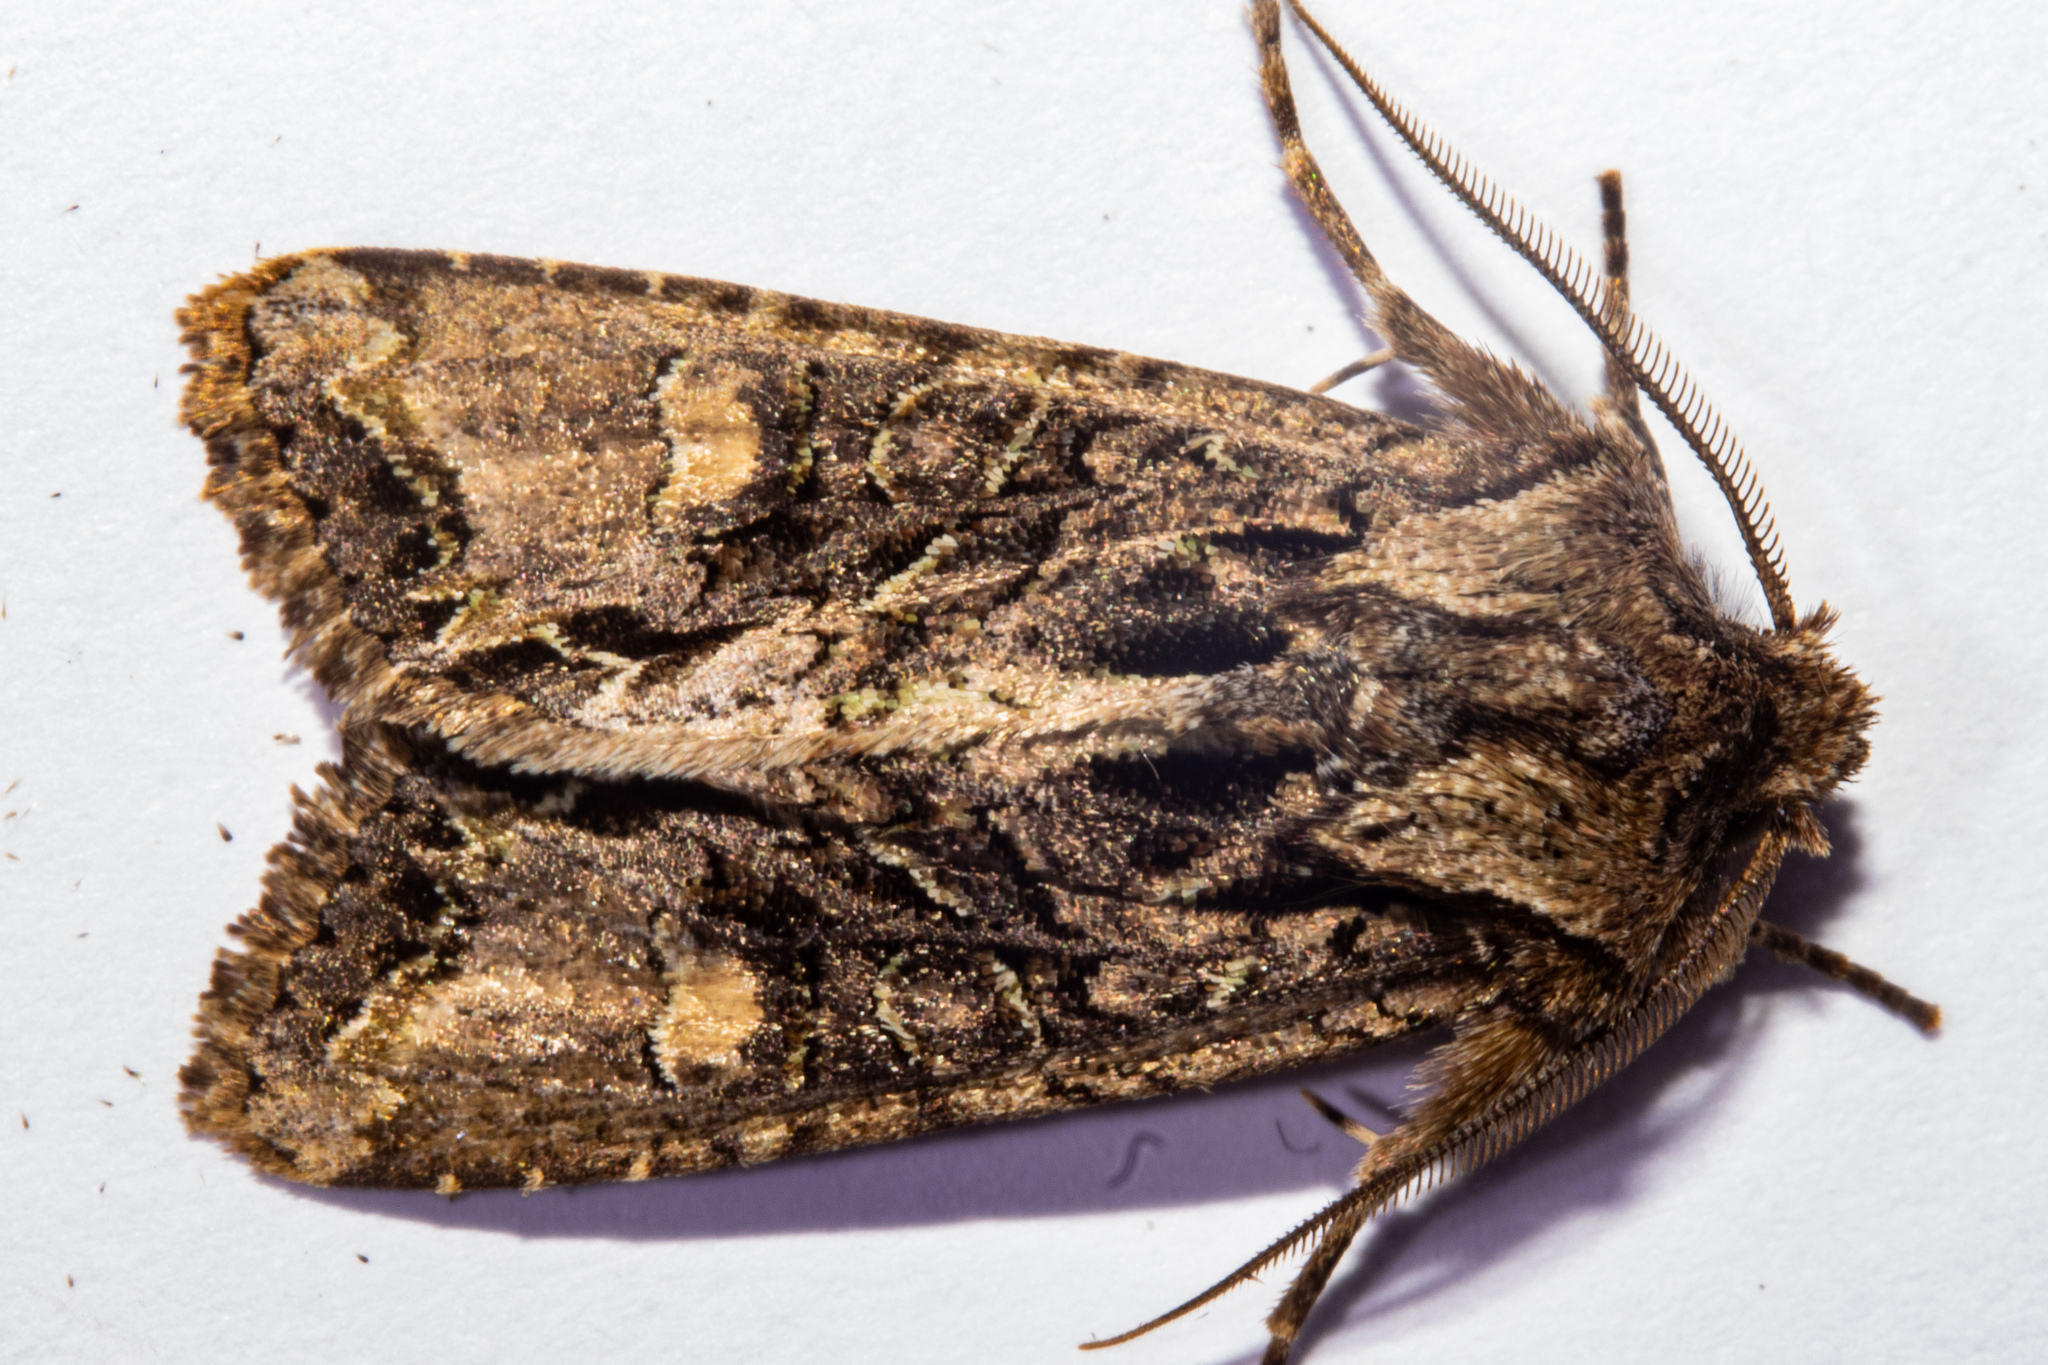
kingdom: Animalia
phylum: Arthropoda
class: Insecta
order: Lepidoptera
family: Noctuidae
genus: Ichneutica
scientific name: Ichneutica insignis
